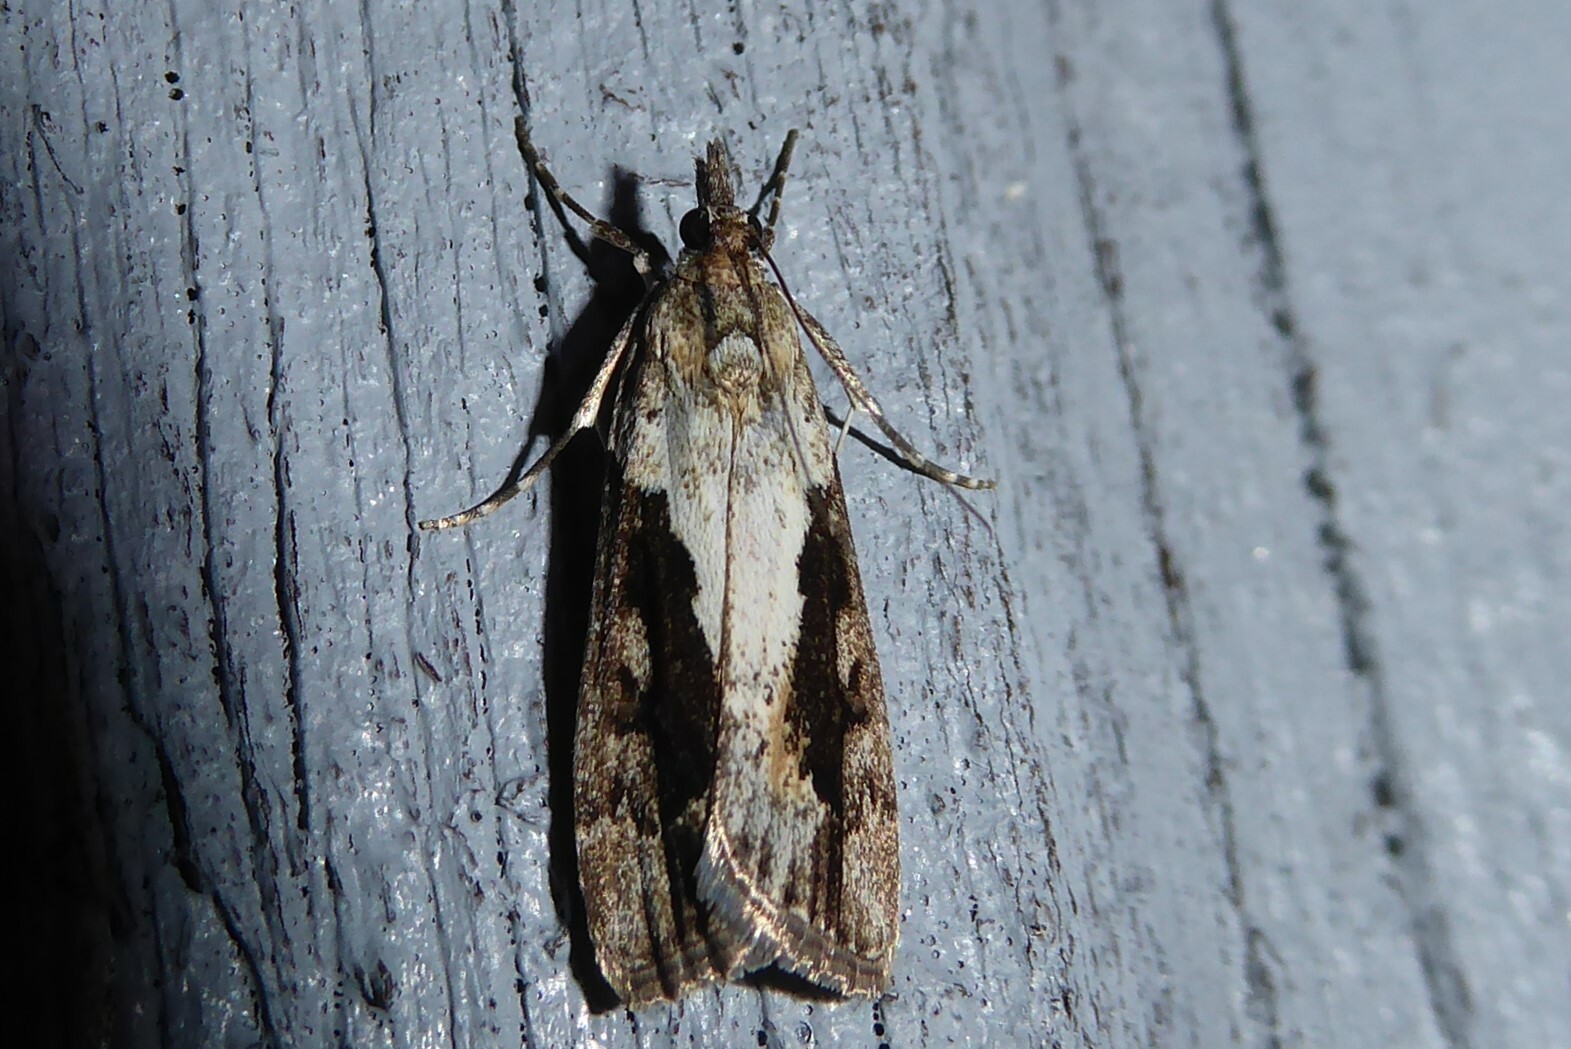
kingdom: Animalia
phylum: Arthropoda
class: Insecta
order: Lepidoptera
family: Crambidae
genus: Eudonia
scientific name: Eudonia submarginalis
